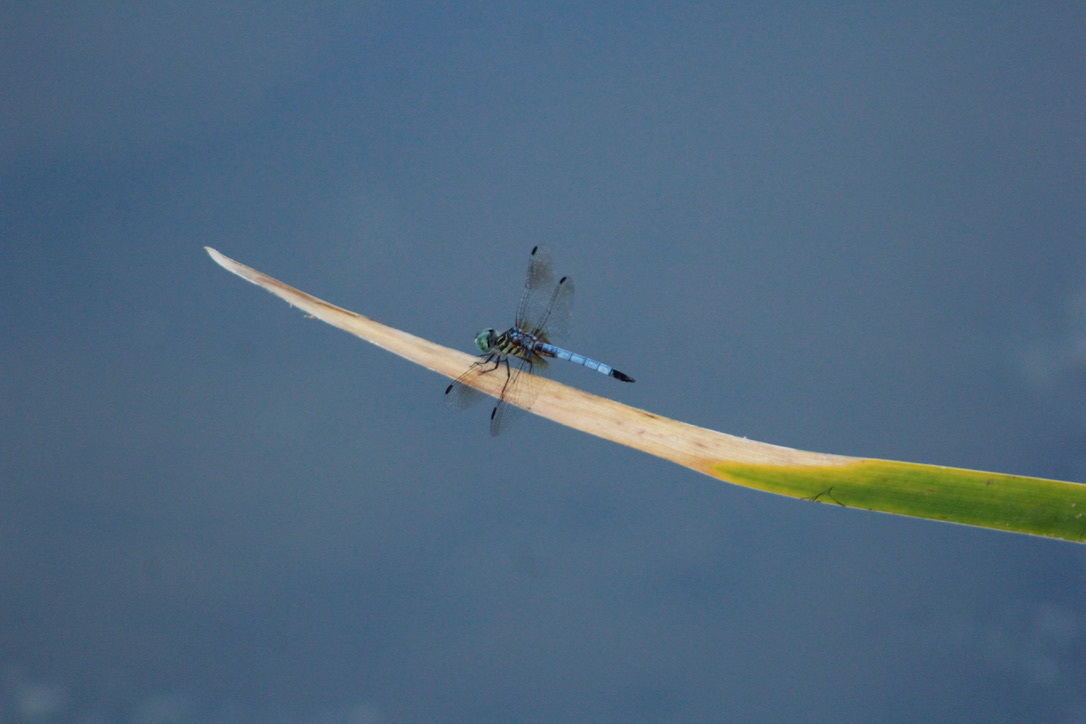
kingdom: Animalia
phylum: Arthropoda
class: Insecta
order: Odonata
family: Libellulidae
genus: Pachydiplax
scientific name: Pachydiplax longipennis
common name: Blue dasher
